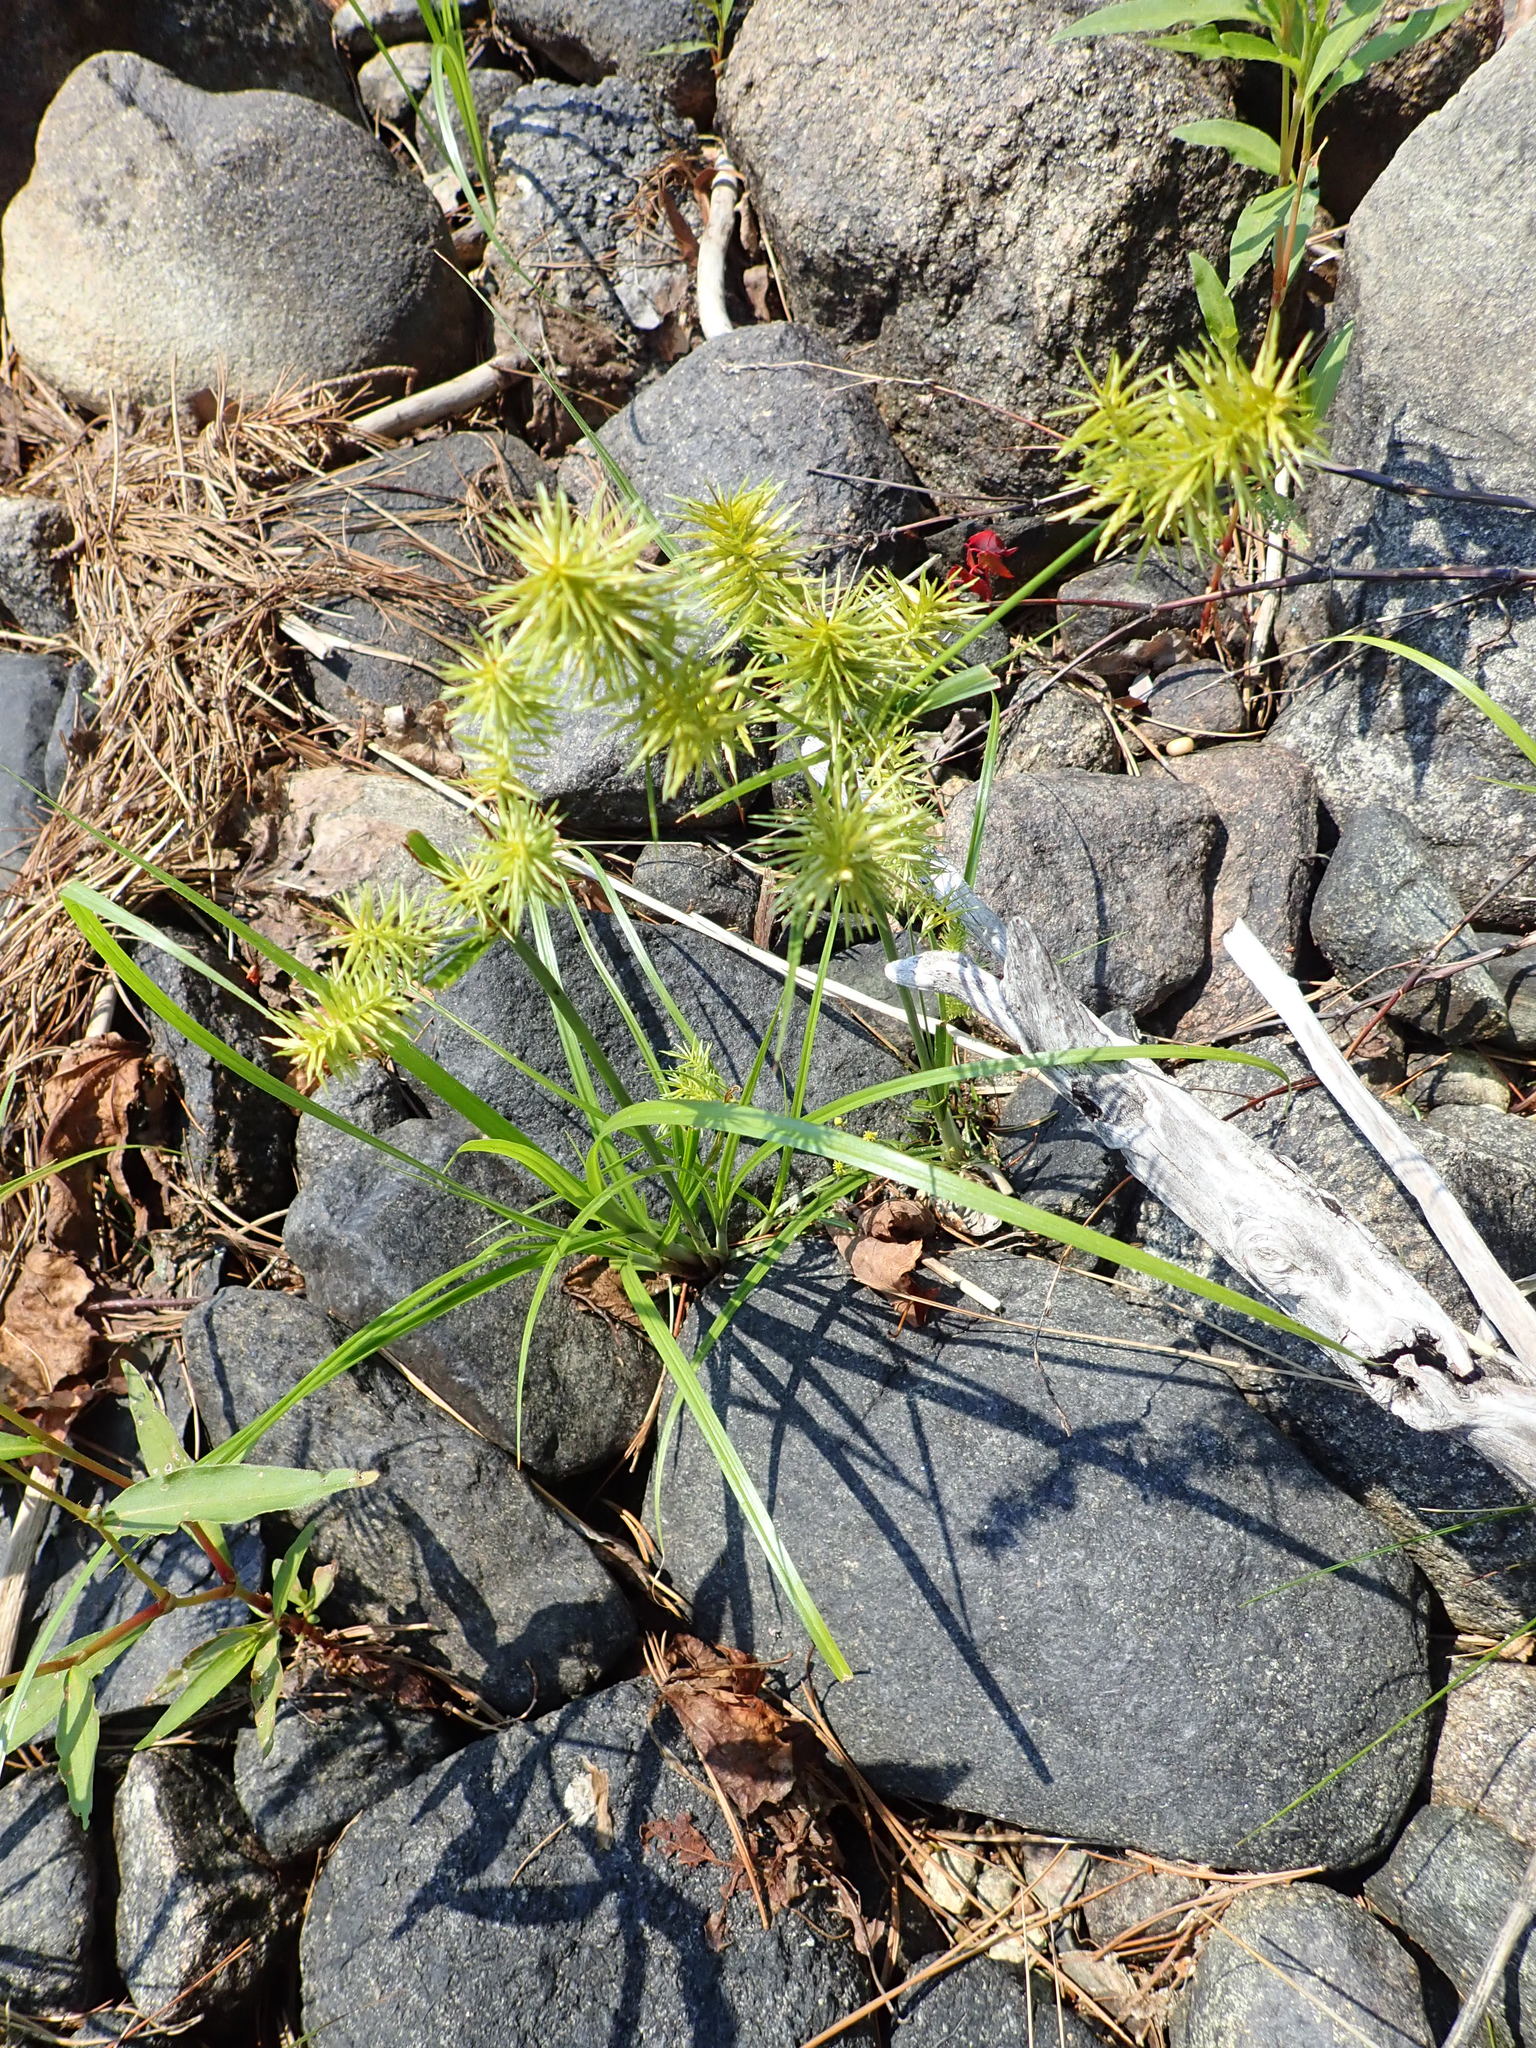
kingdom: Plantae
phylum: Tracheophyta
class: Liliopsida
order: Poales
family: Cyperaceae
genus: Cyperus
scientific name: Cyperus strigosus
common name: False nutsedge
